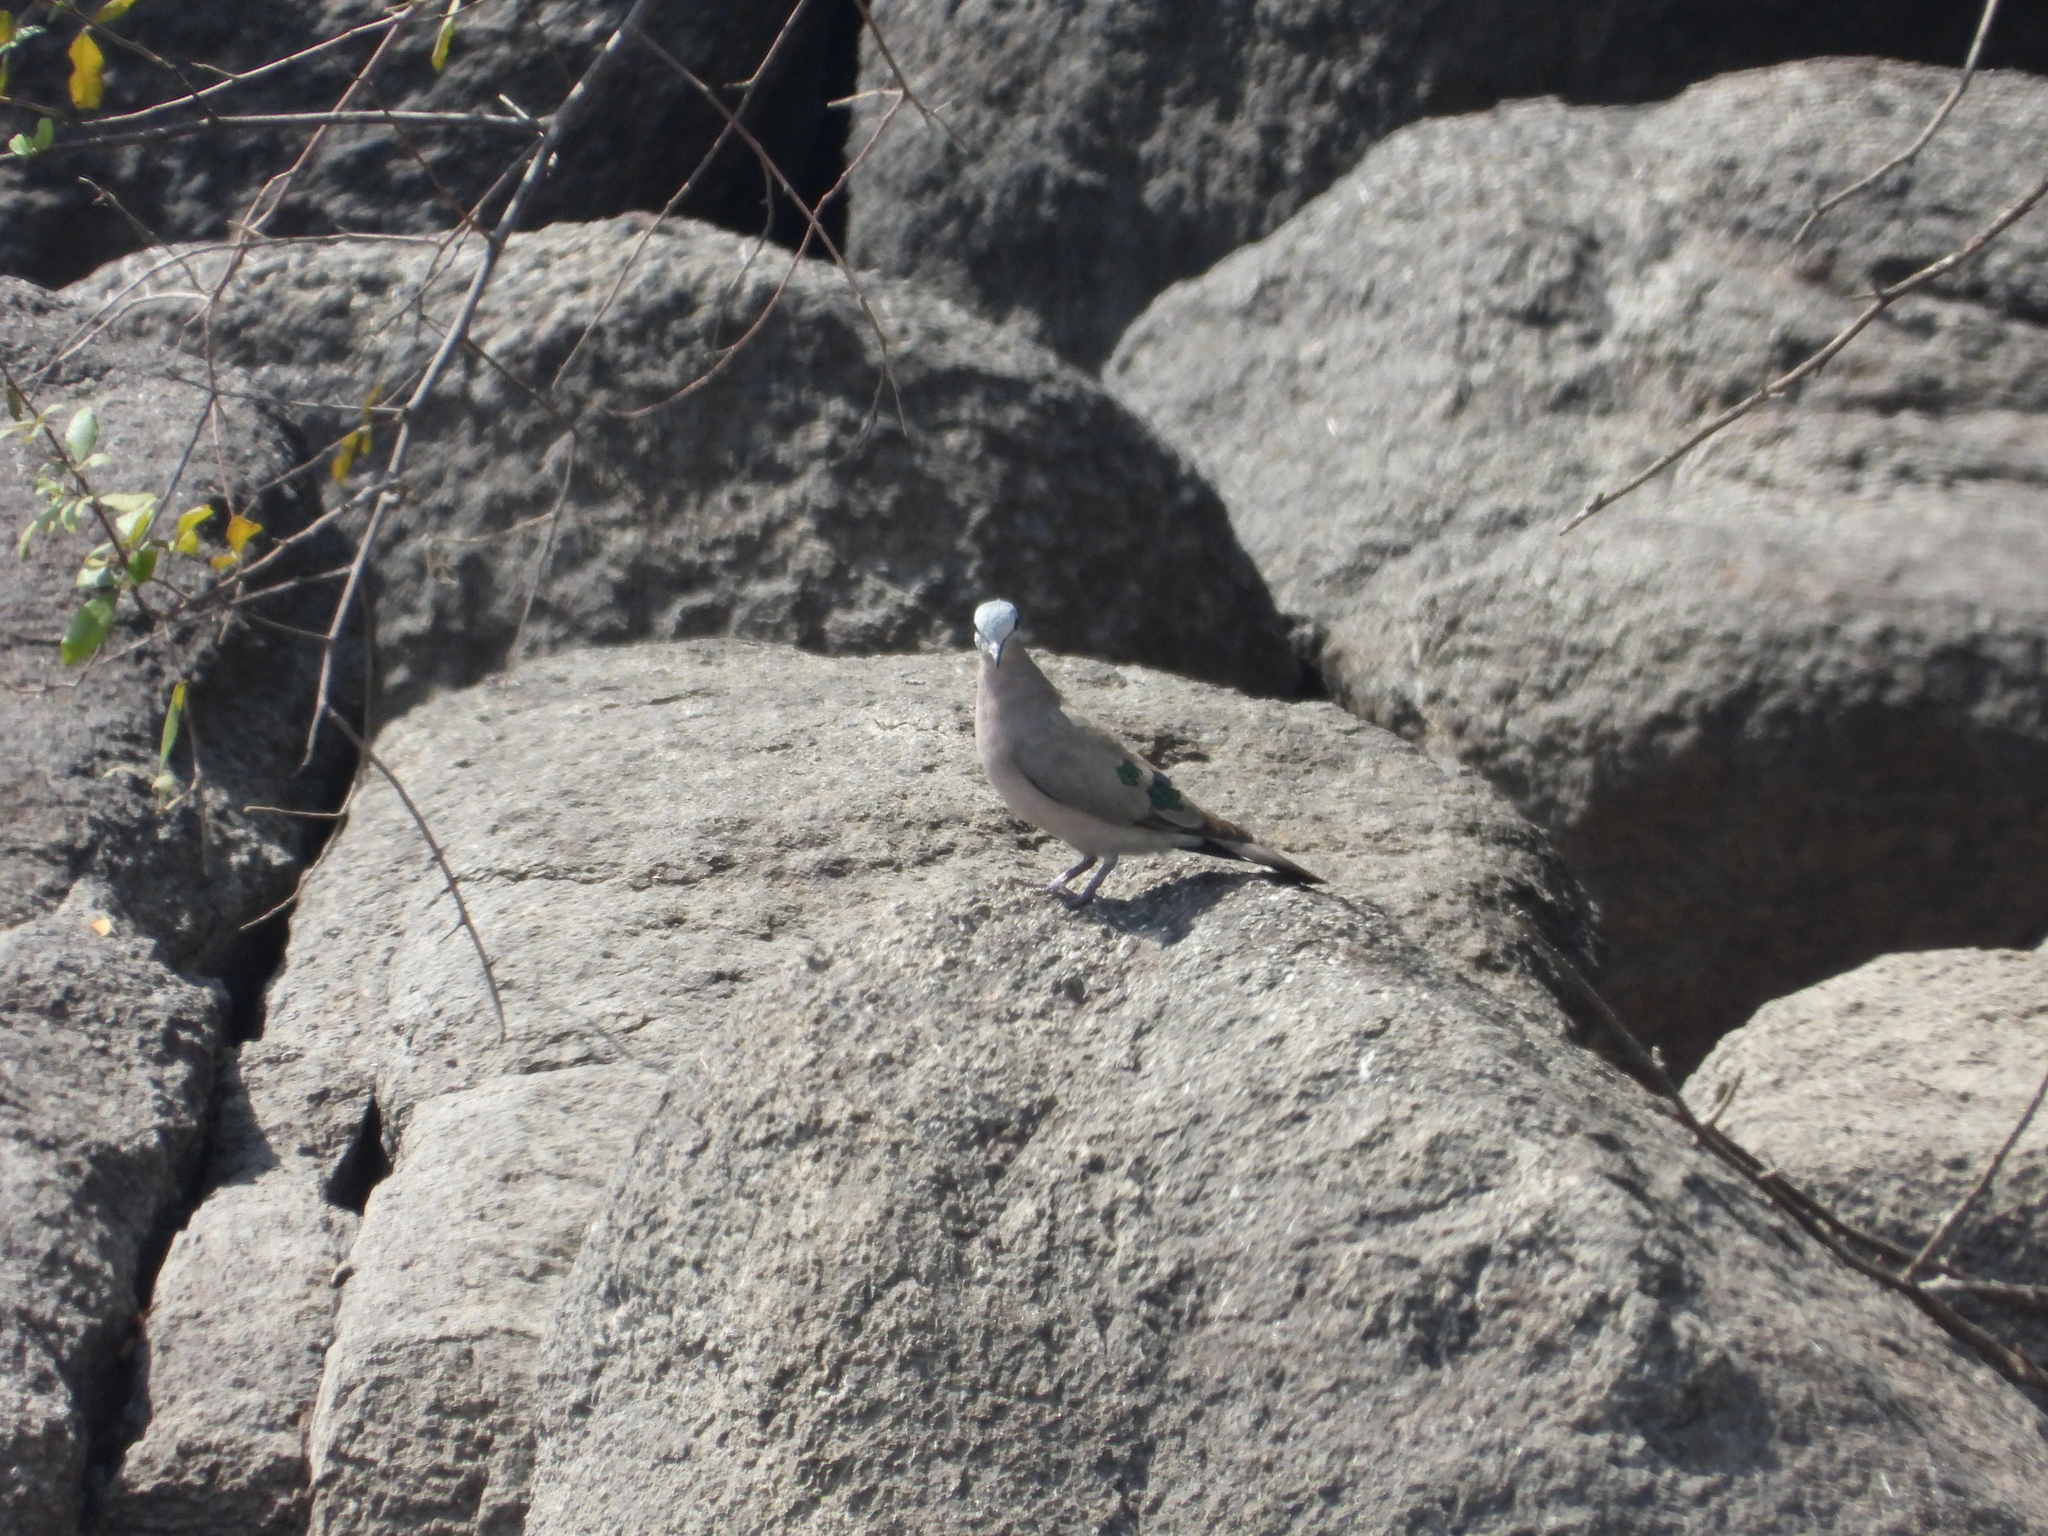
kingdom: Animalia
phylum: Chordata
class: Aves
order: Columbiformes
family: Columbidae
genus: Turtur
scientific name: Turtur chalcospilos
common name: Emerald-spotted wood dove
